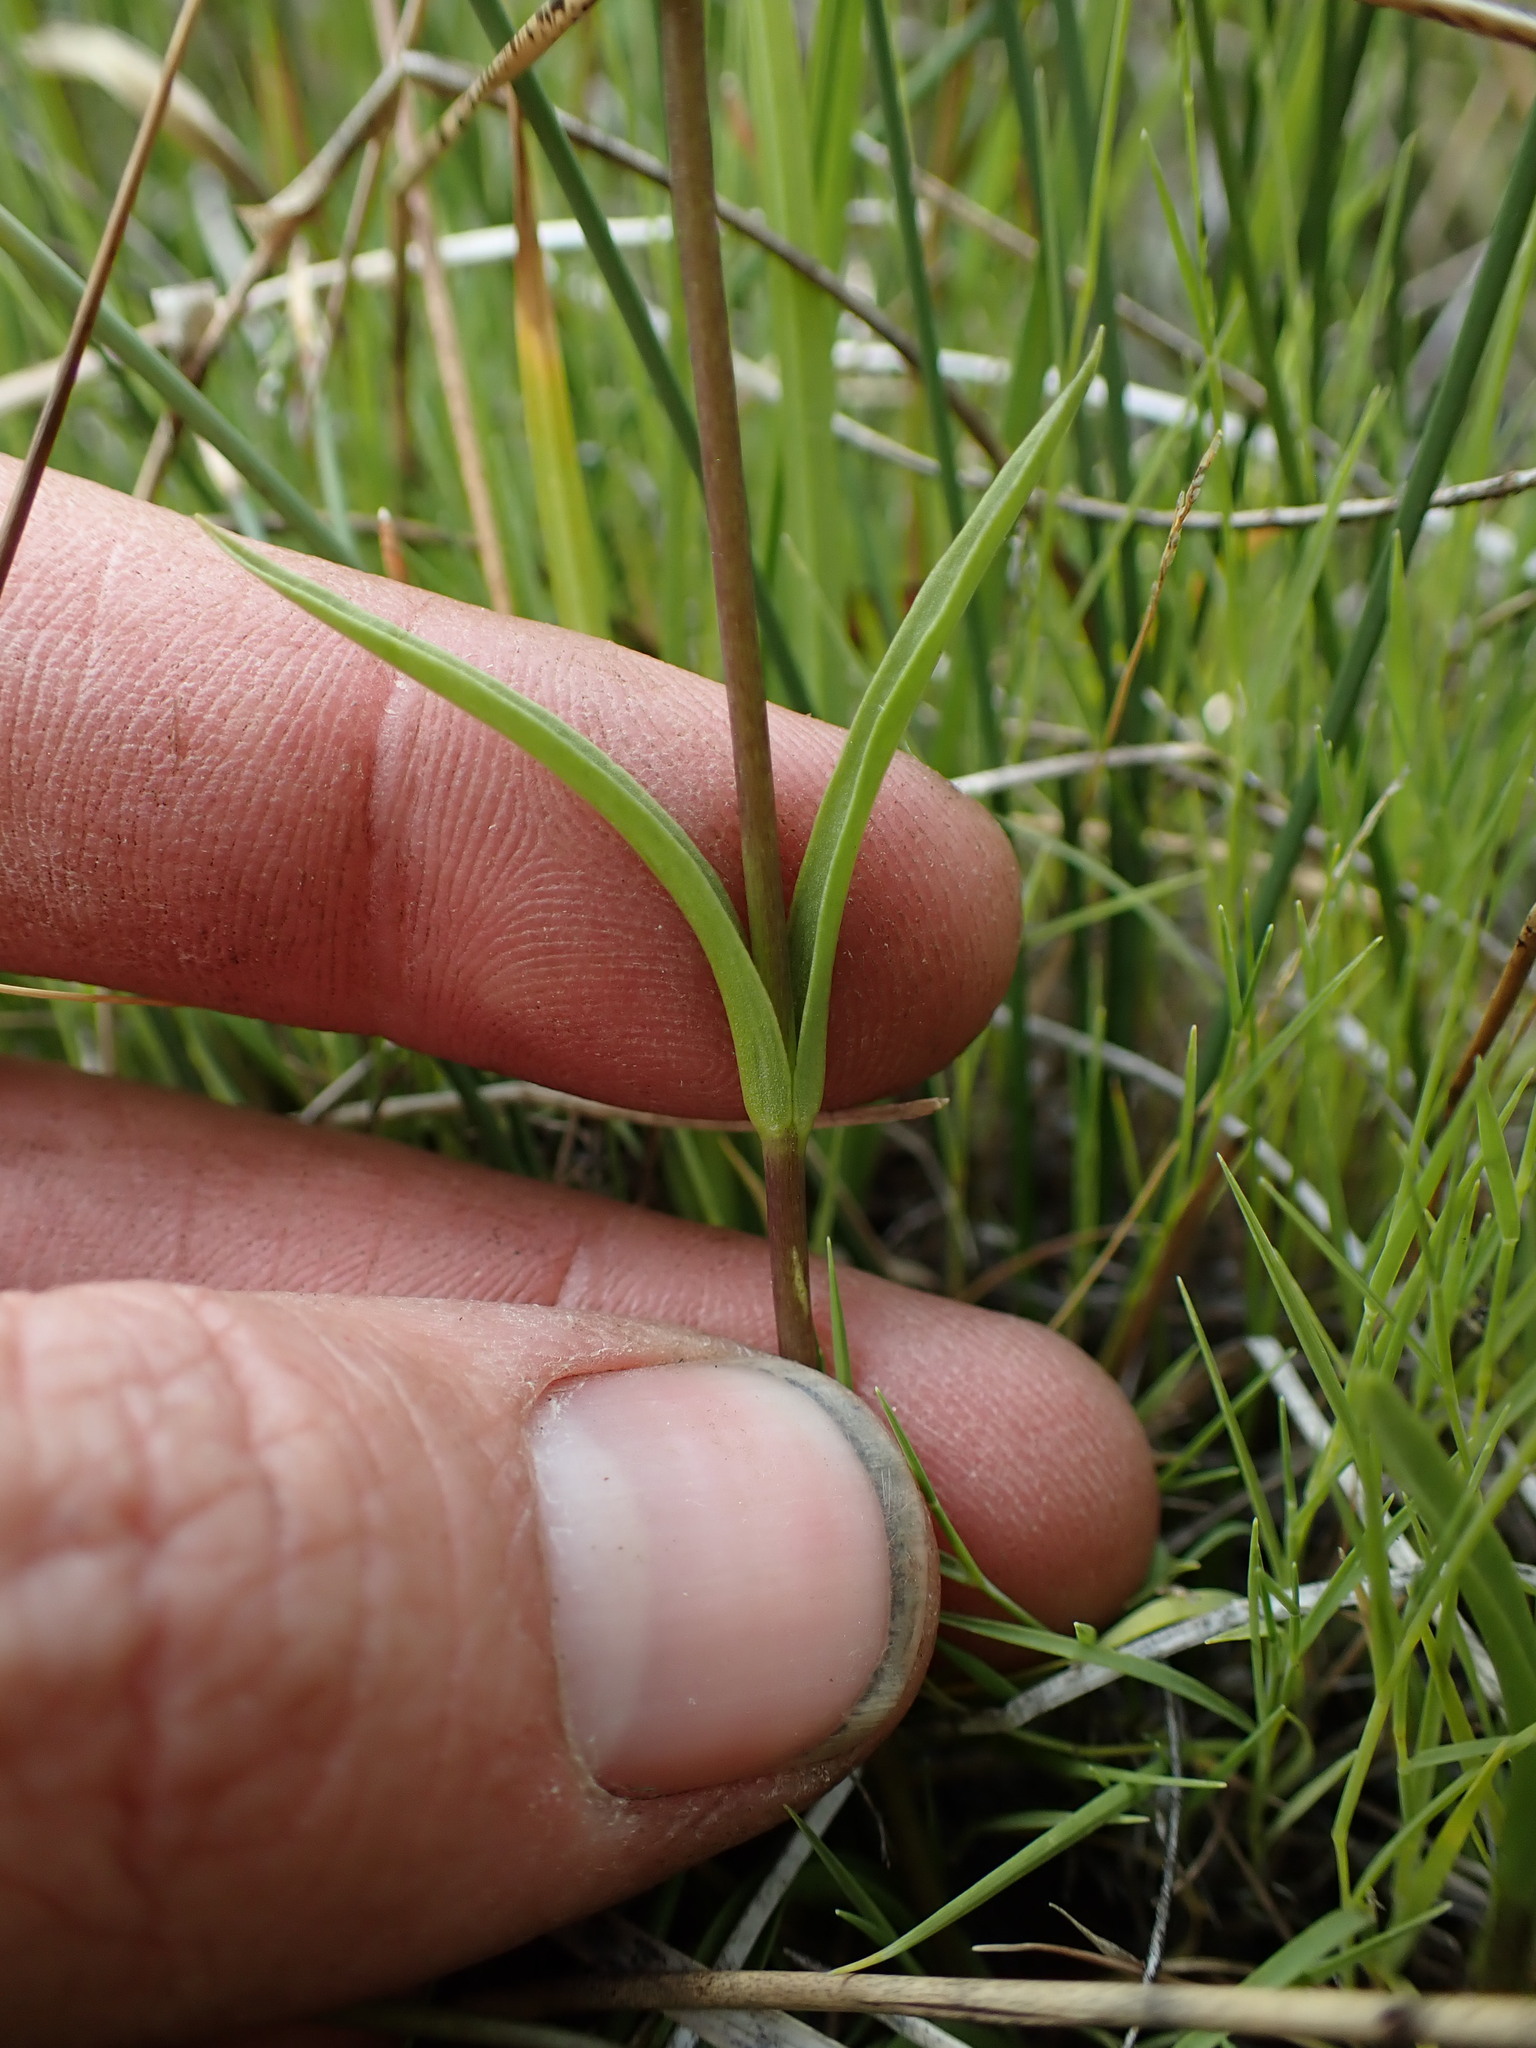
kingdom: Plantae
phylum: Tracheophyta
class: Magnoliopsida
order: Gentianales
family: Gentianaceae
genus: Gentianopsis
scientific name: Gentianopsis holopetala
